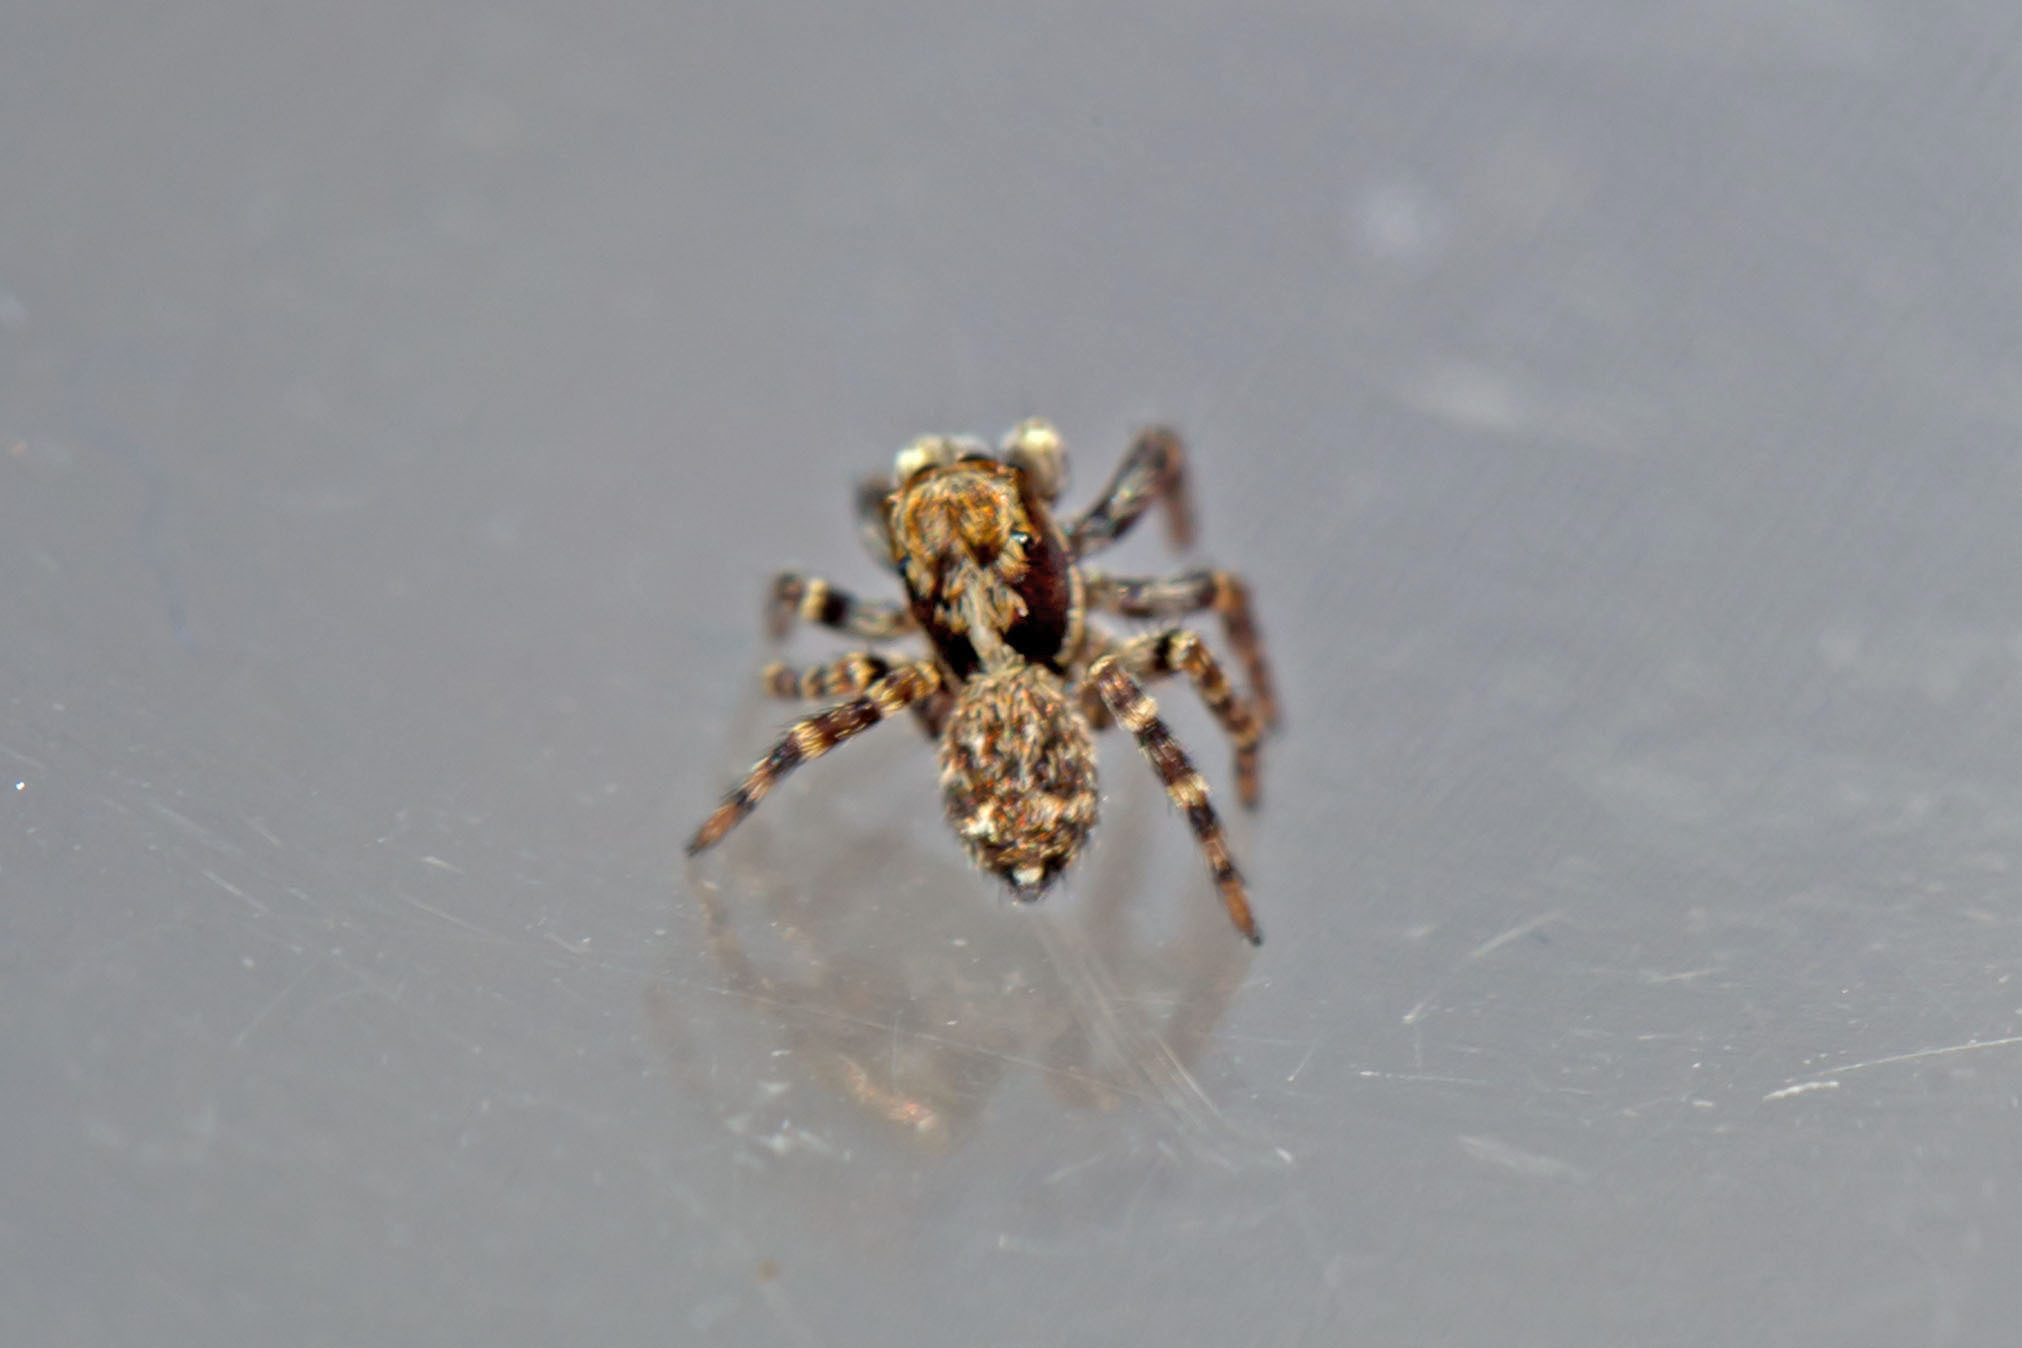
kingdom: Animalia
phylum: Arthropoda
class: Arachnida
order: Araneae
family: Salticidae
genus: Pseudeuophrys
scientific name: Pseudeuophrys erratica
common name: Jumping spider
